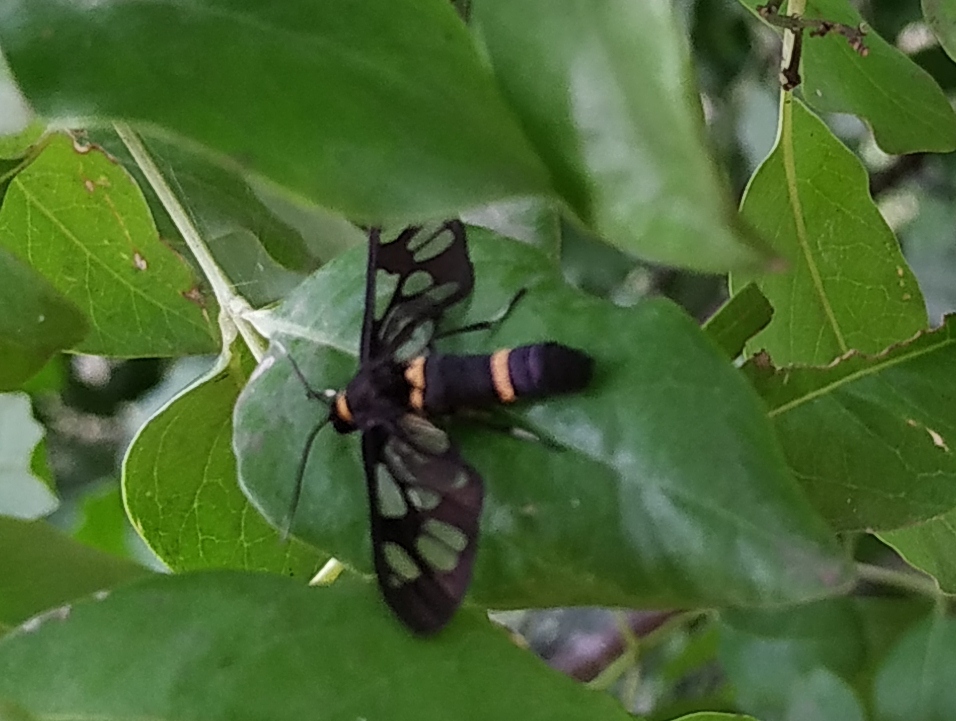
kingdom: Animalia
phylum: Arthropoda
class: Insecta
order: Lepidoptera
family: Erebidae
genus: Syntomoides
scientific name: Syntomoides imaon
